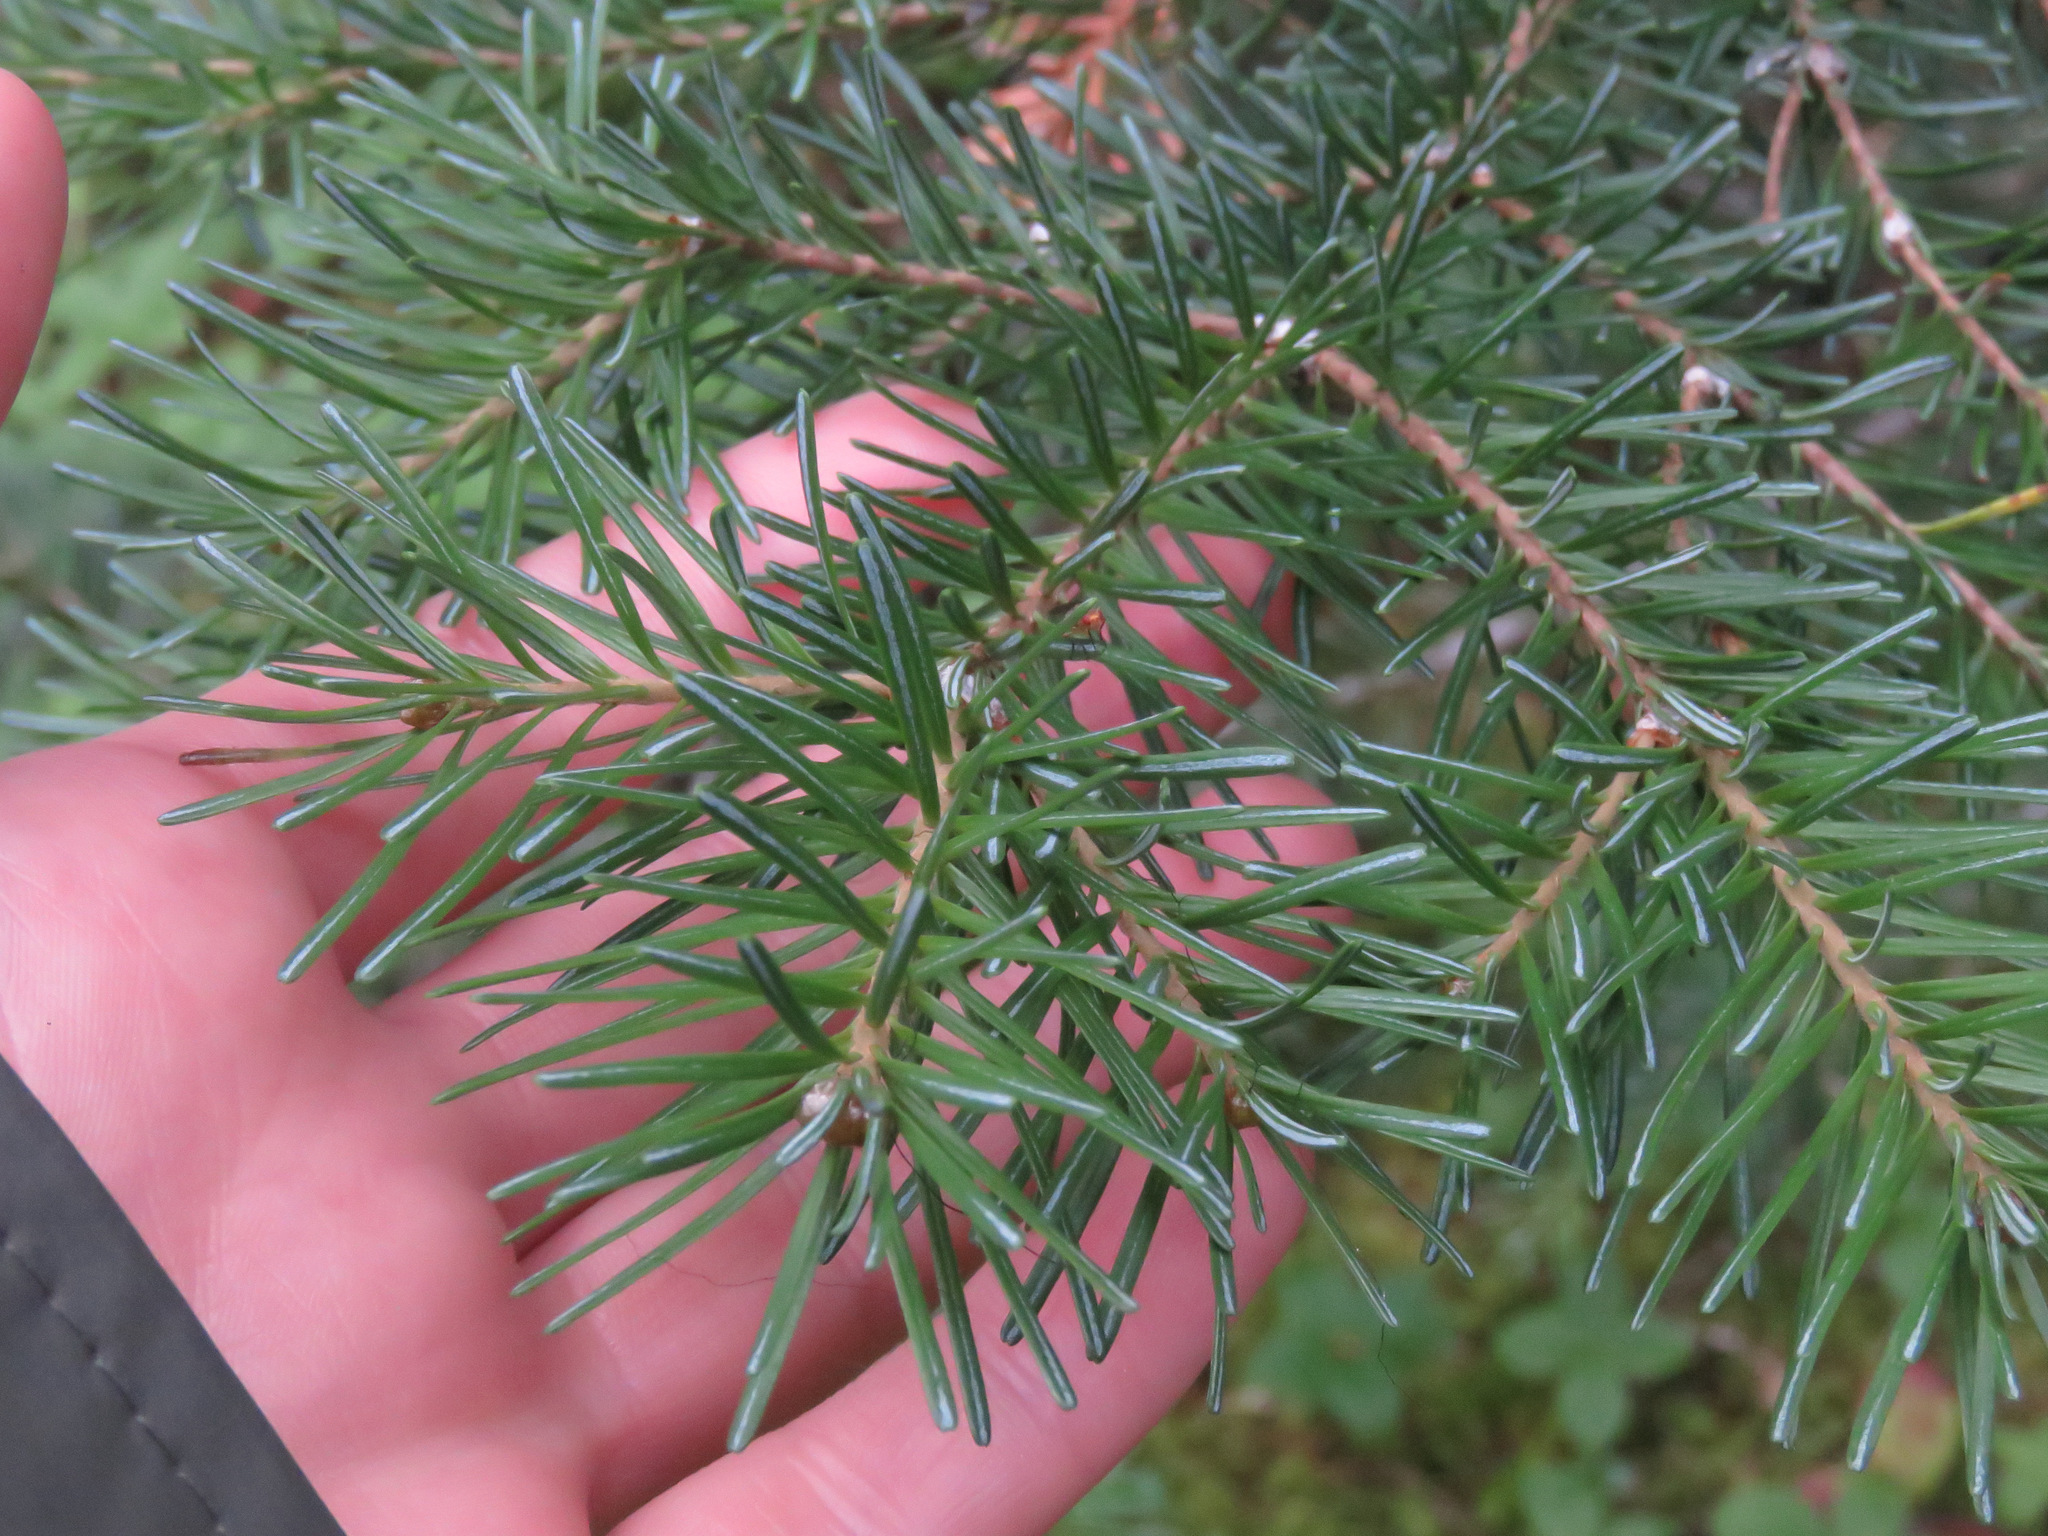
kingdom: Plantae
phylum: Tracheophyta
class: Pinopsida
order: Pinales
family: Pinaceae
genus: Abies
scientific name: Abies lasiocarpa
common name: Subalpine fir
